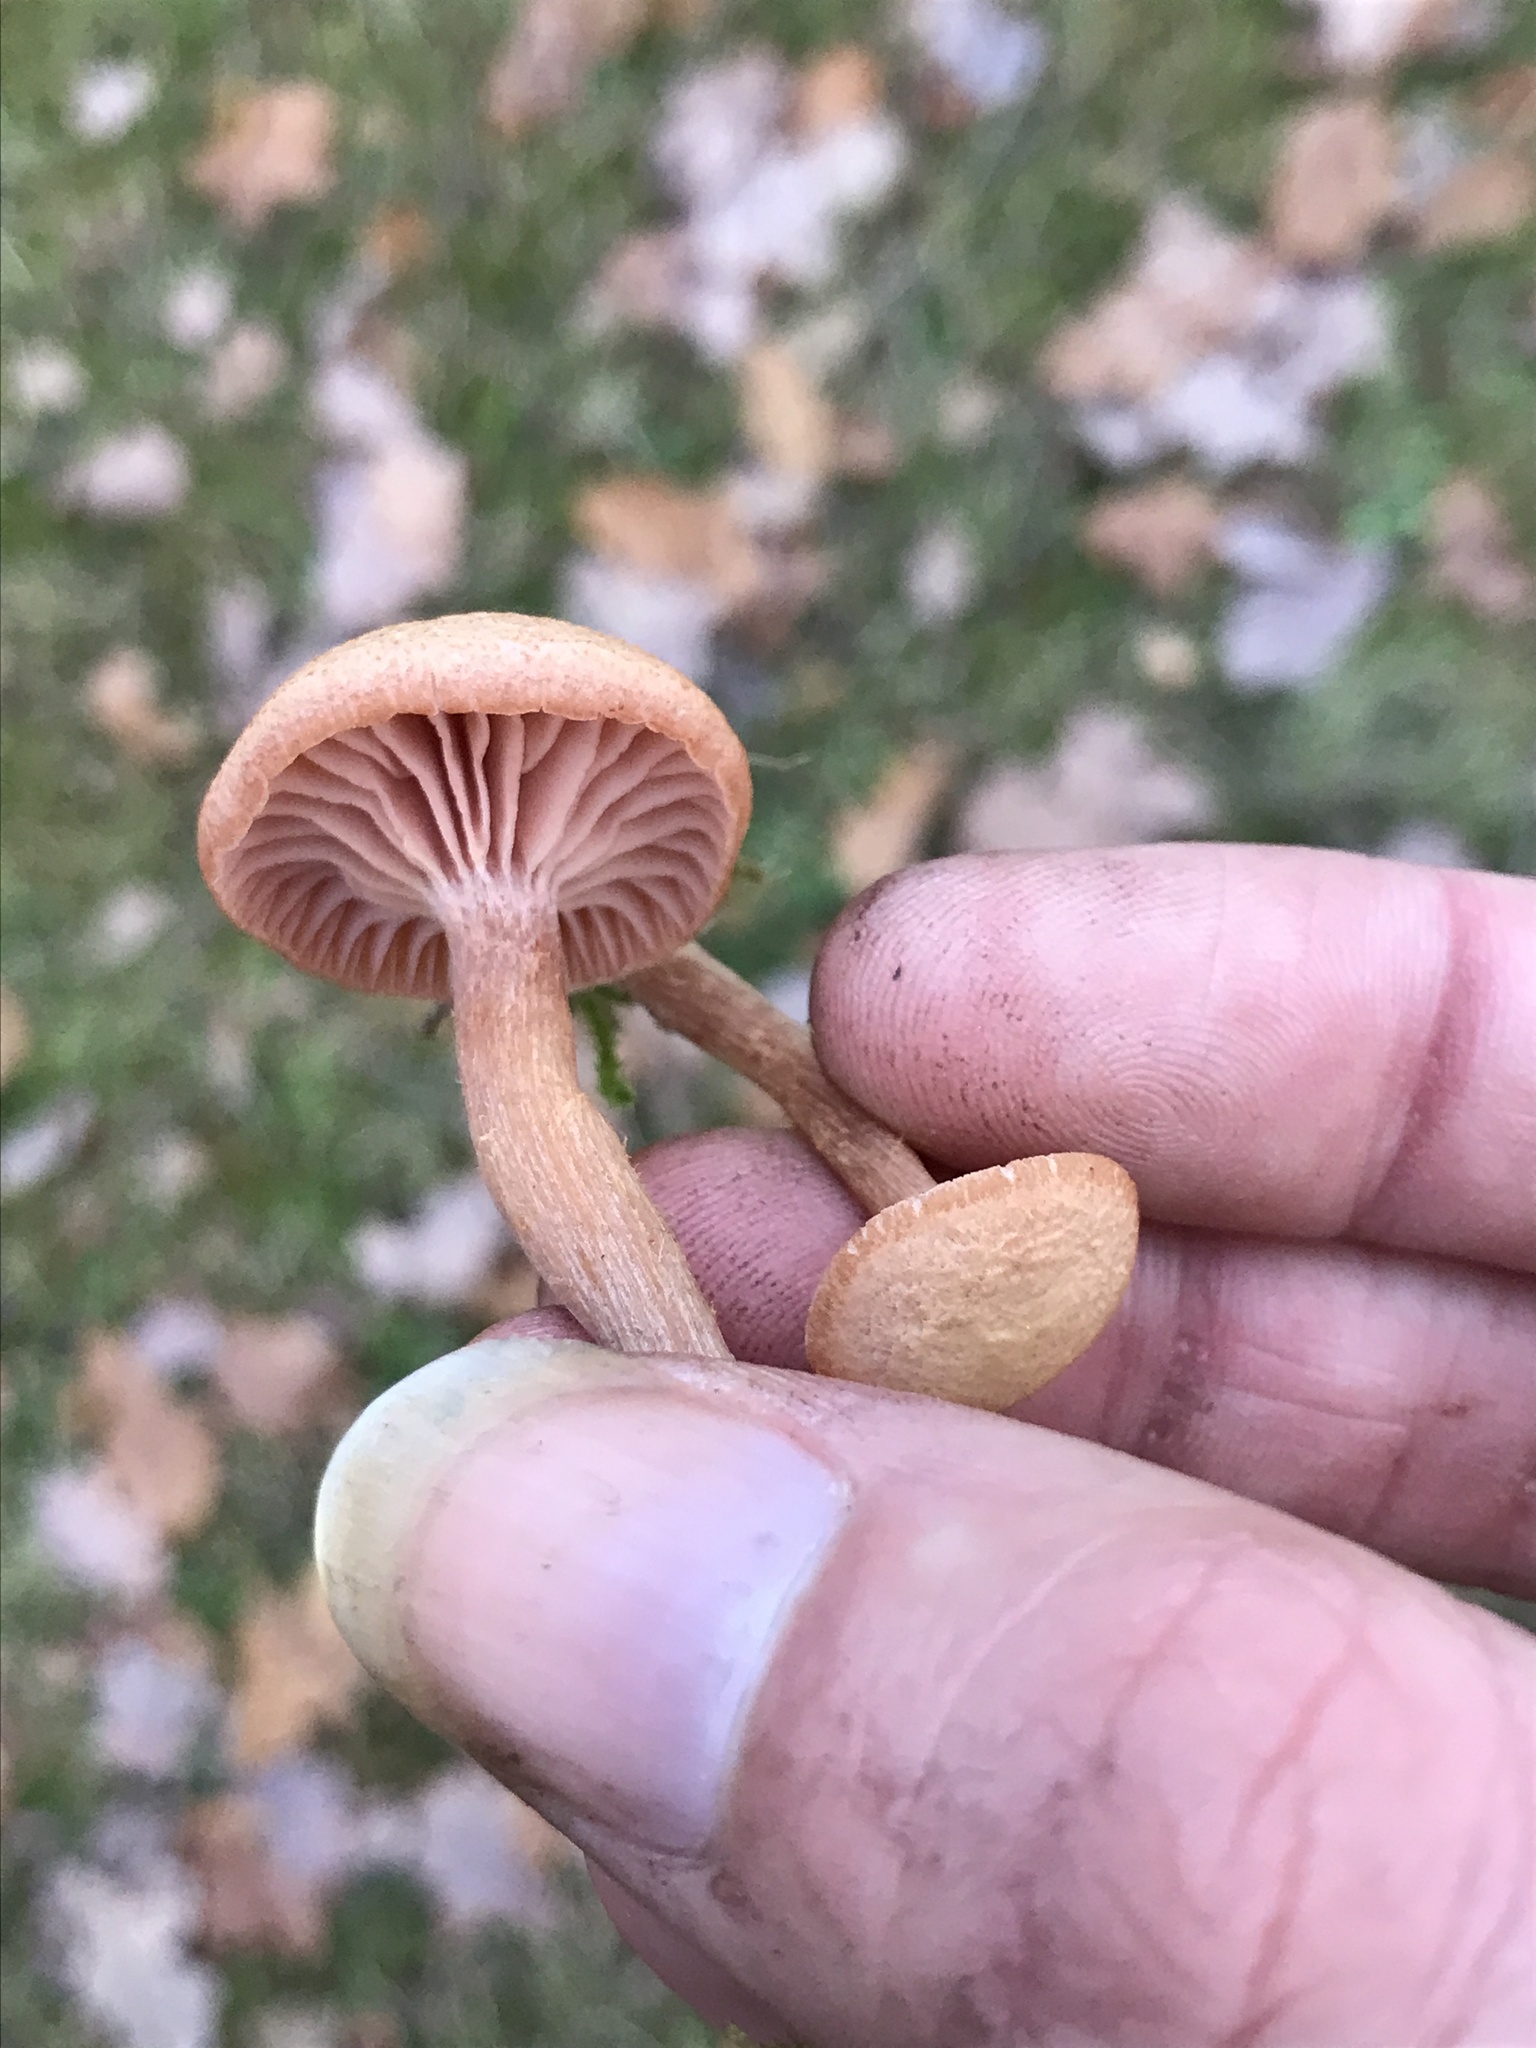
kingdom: Fungi
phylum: Basidiomycota
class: Agaricomycetes
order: Agaricales
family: Hydnangiaceae
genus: Laccaria
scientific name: Laccaria laccata
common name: Deceiver
